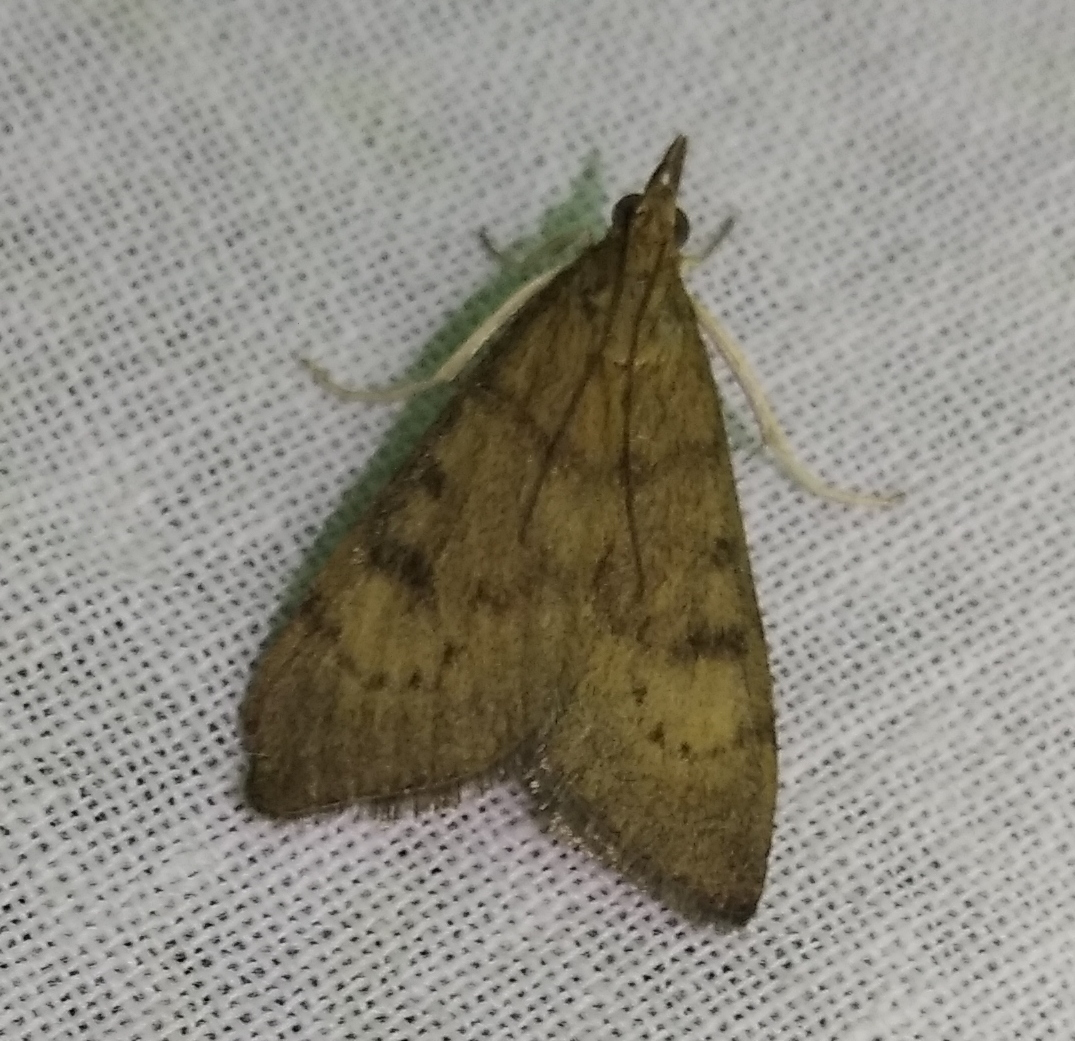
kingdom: Animalia
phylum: Arthropoda
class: Insecta
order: Lepidoptera
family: Crambidae
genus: Uresiphita
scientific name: Uresiphita gilvata
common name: Yellow-underwing pearl
